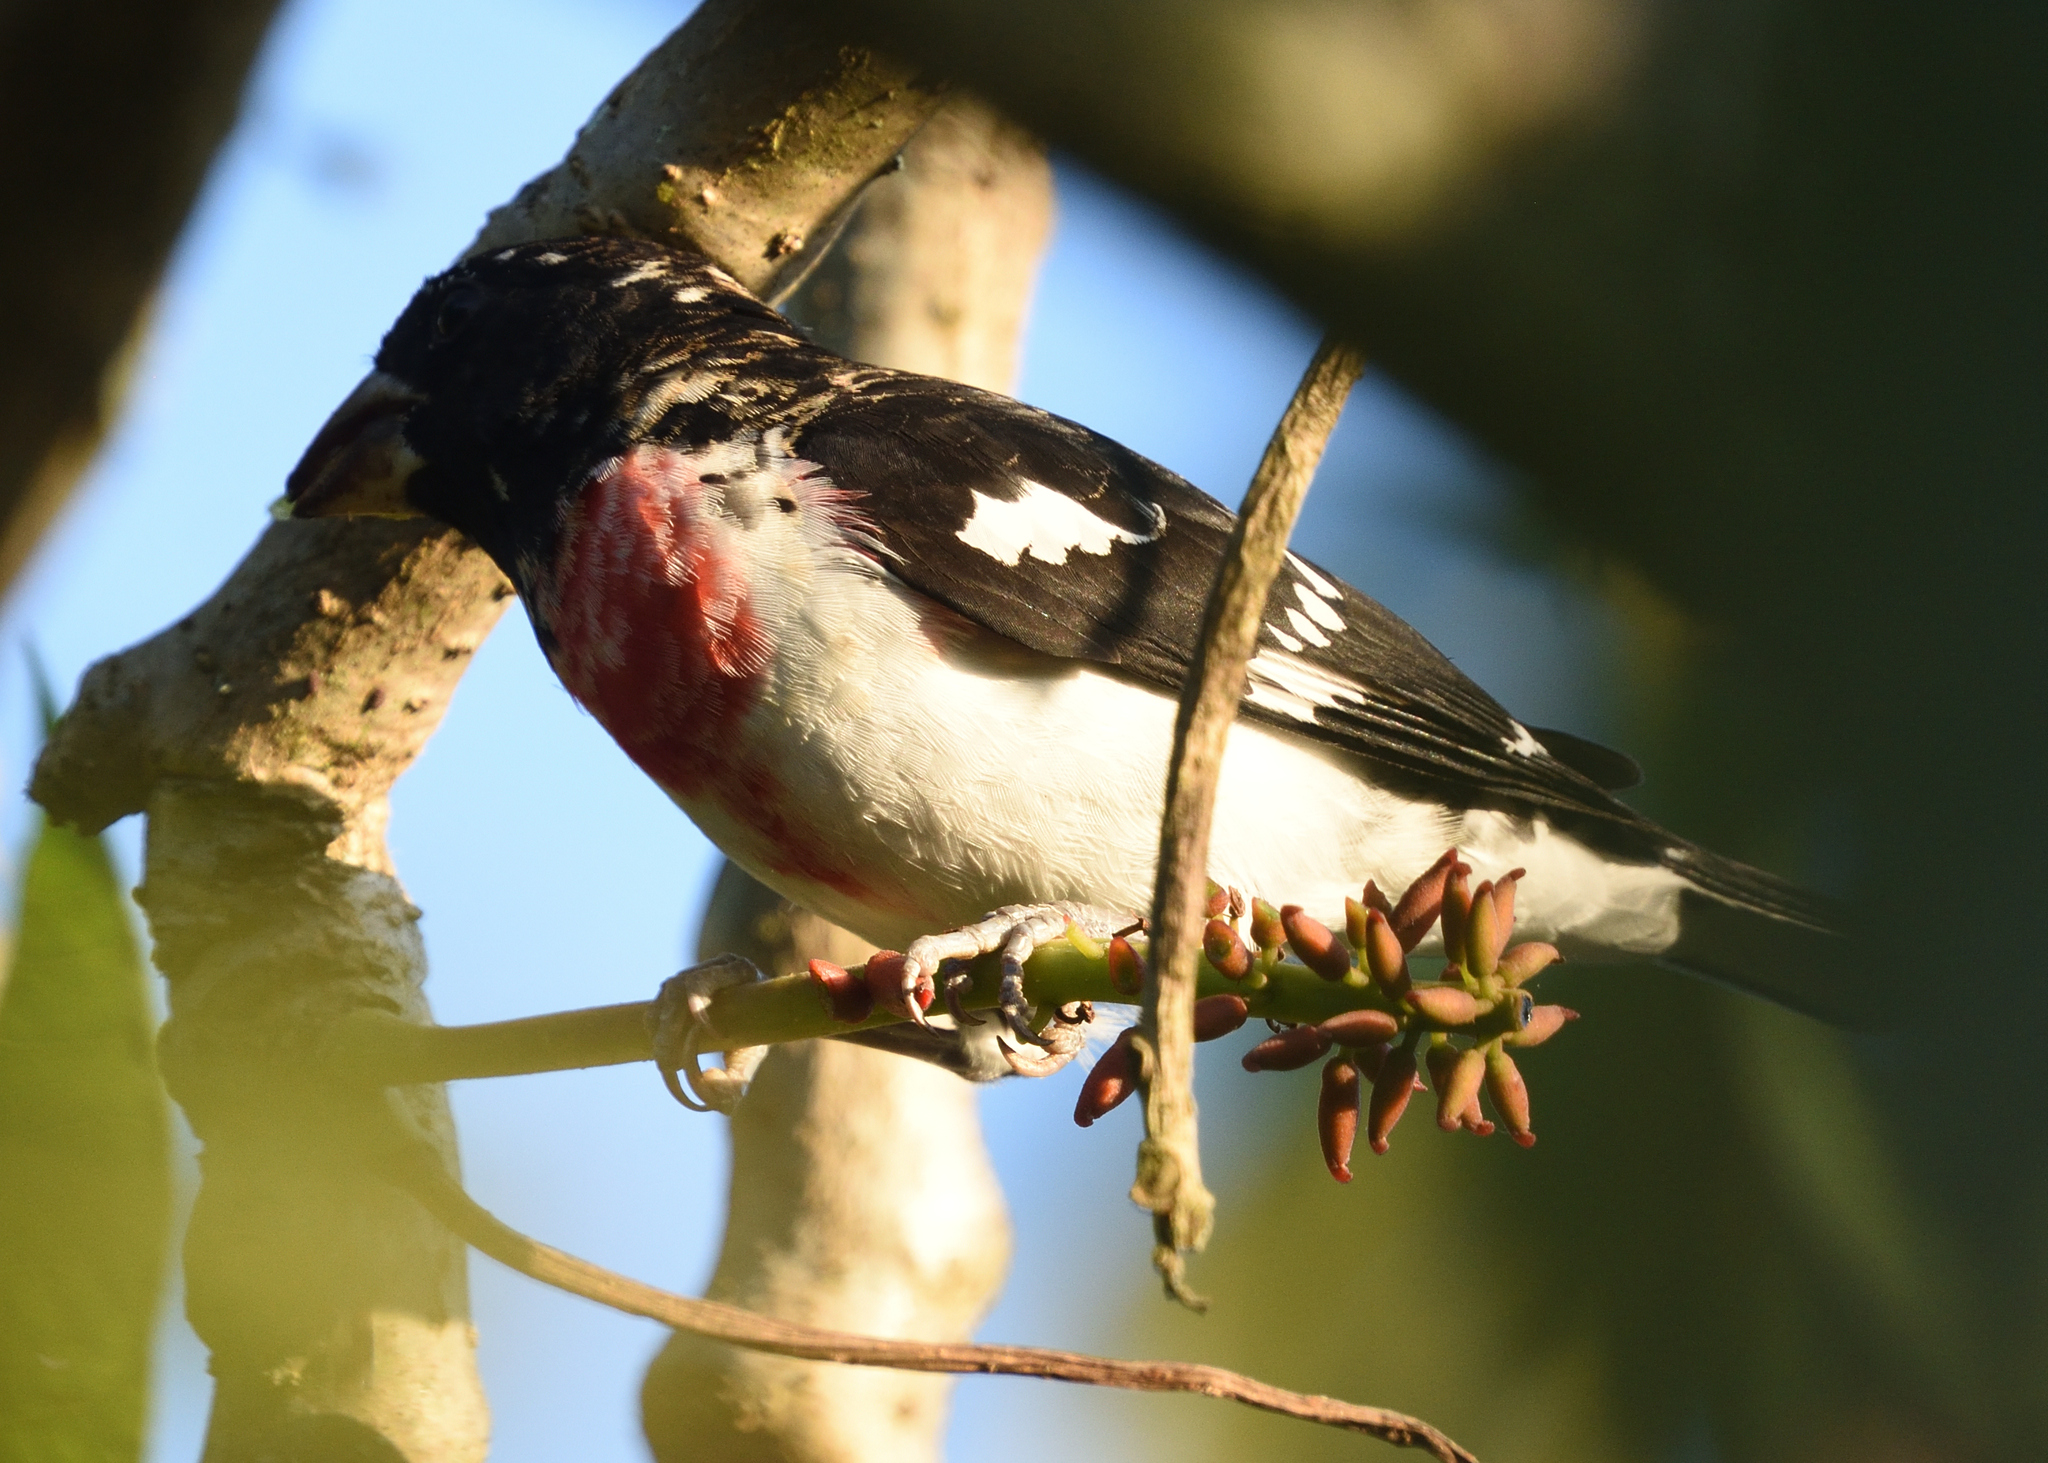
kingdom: Animalia
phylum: Chordata
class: Aves
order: Passeriformes
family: Cardinalidae
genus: Pheucticus
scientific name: Pheucticus ludovicianus
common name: Rose-breasted grosbeak
